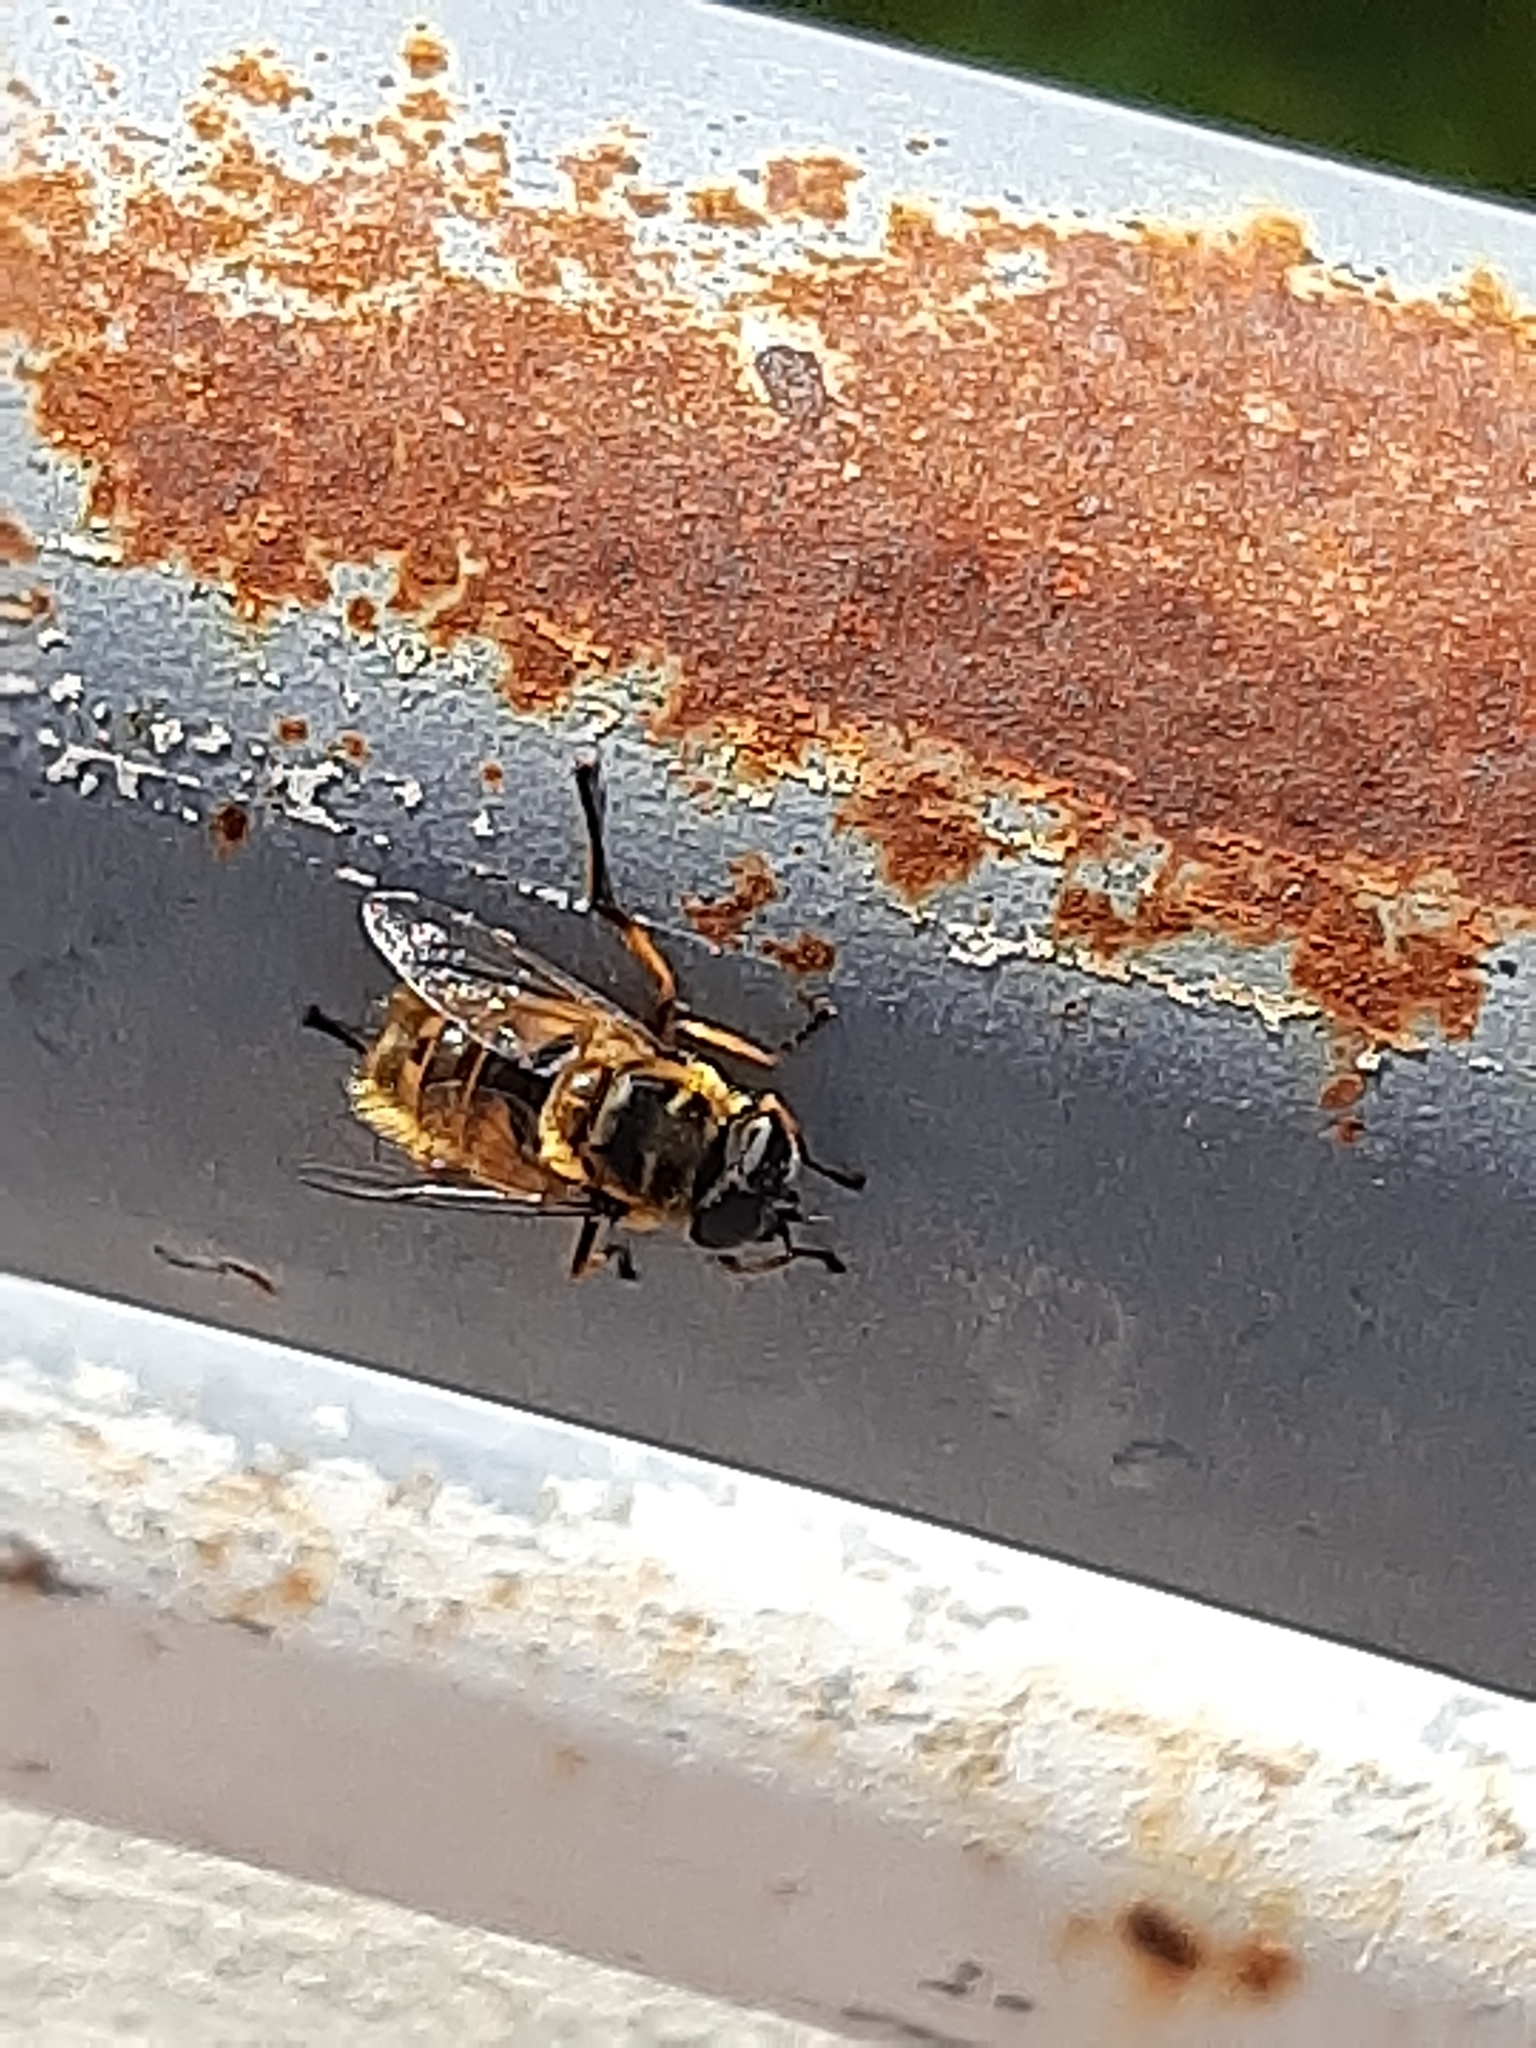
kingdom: Animalia
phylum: Arthropoda
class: Insecta
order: Diptera
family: Syrphidae
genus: Myathropa
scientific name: Myathropa florea
